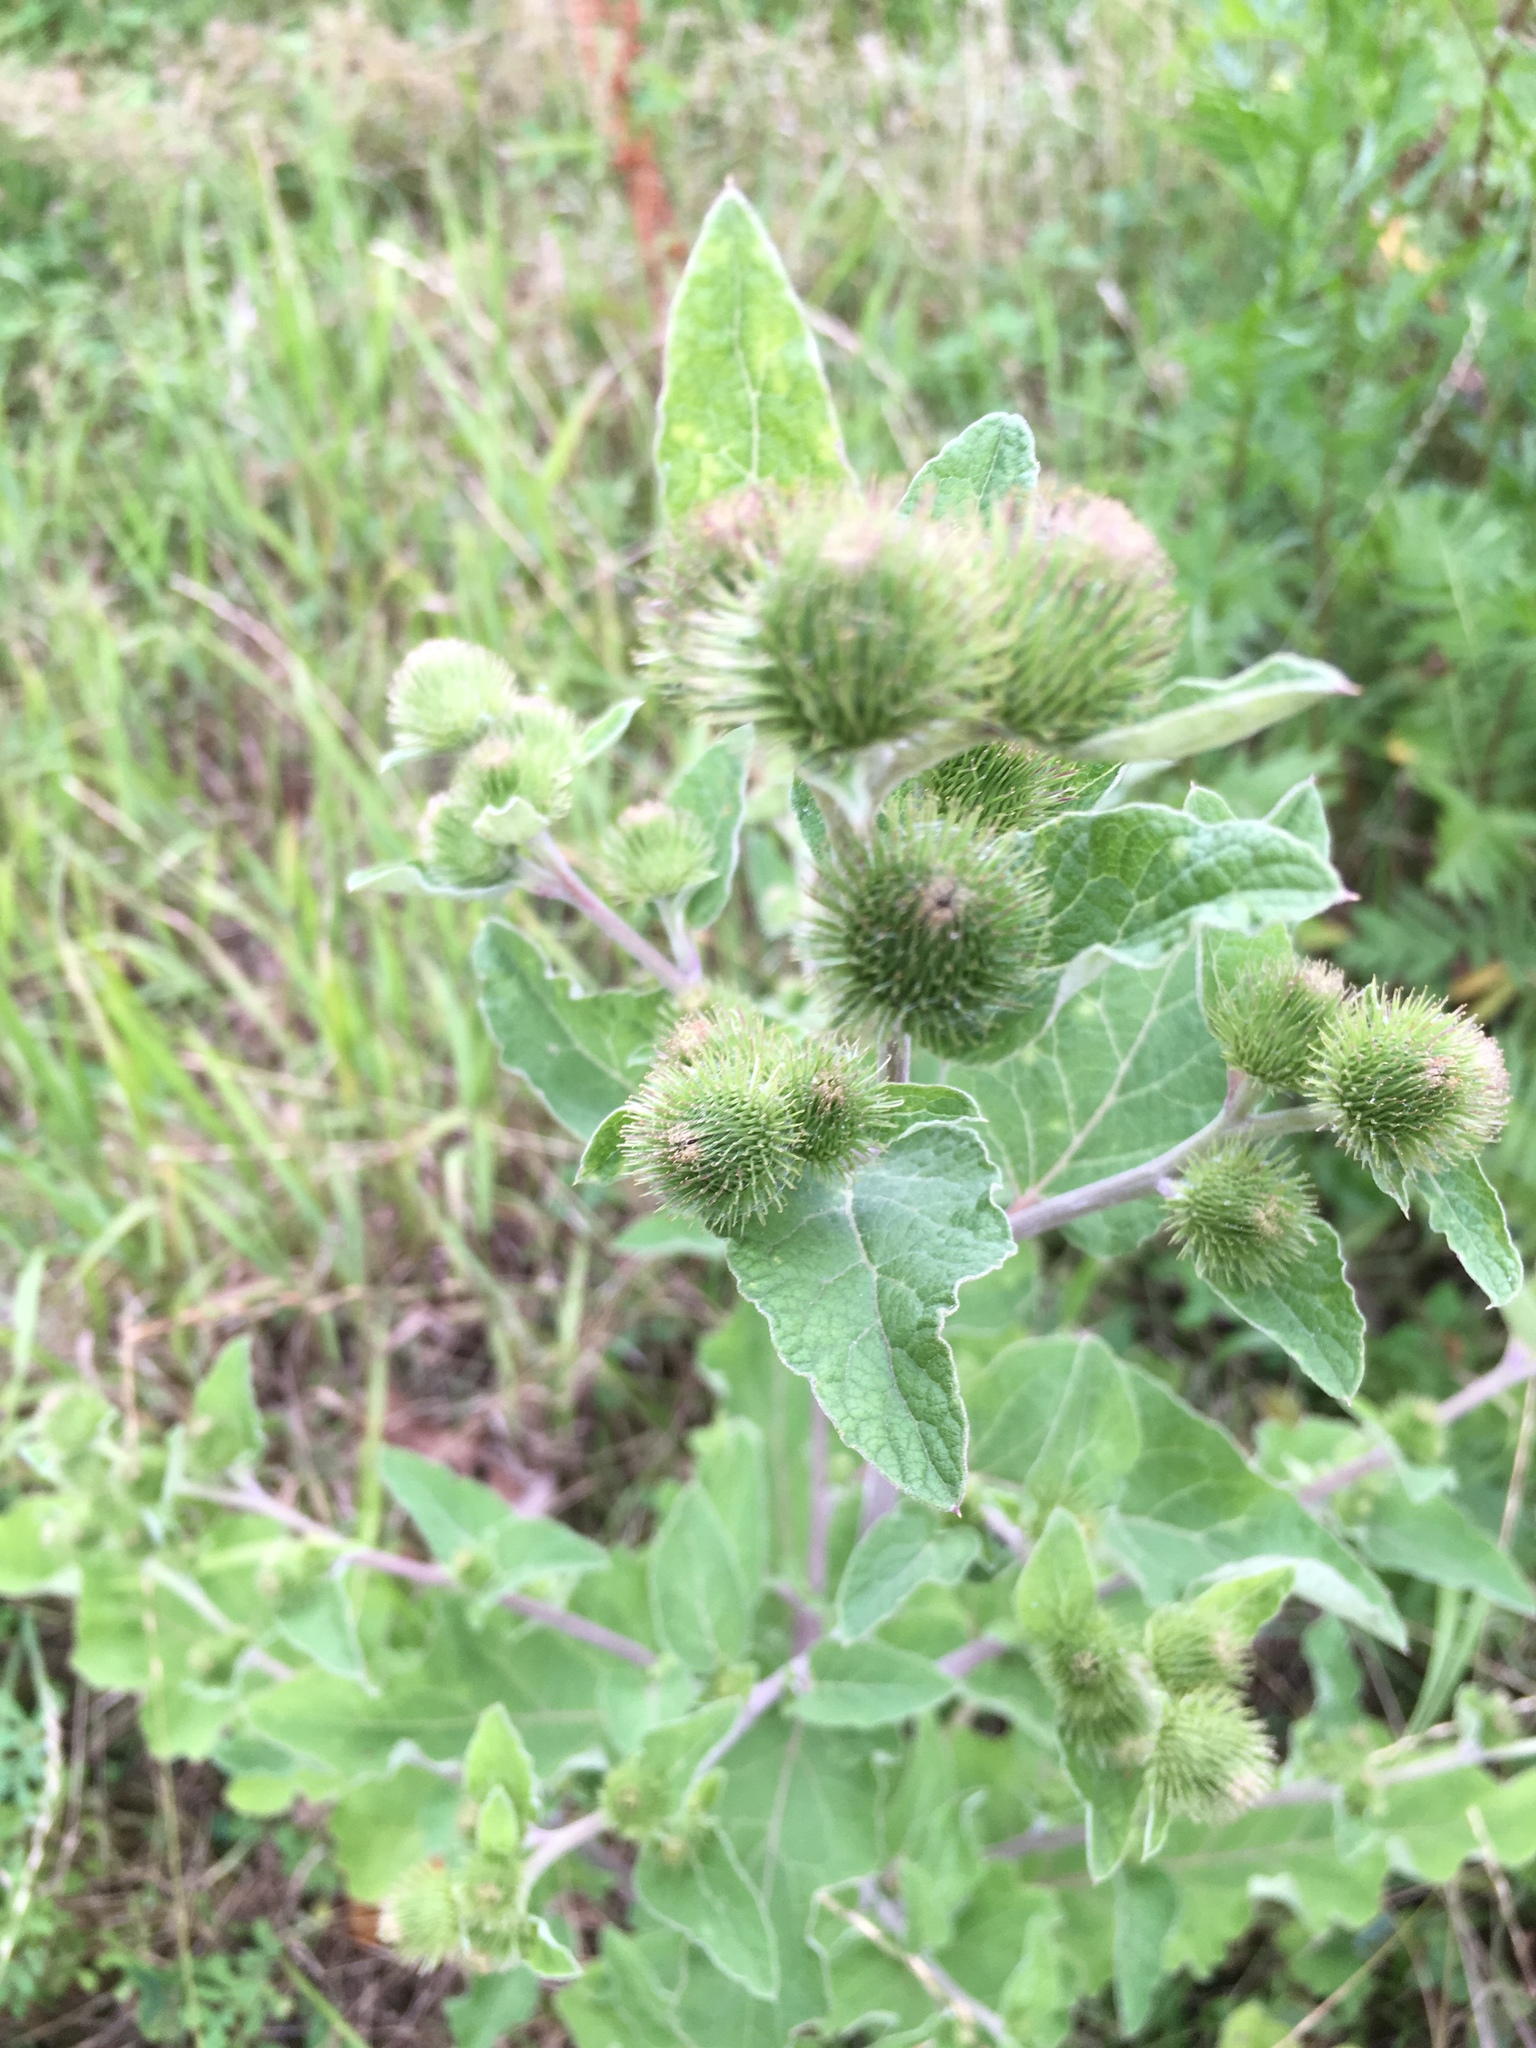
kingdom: Plantae
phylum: Tracheophyta
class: Magnoliopsida
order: Asterales
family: Asteraceae
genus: Arctium
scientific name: Arctium minus
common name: Lesser burdock
